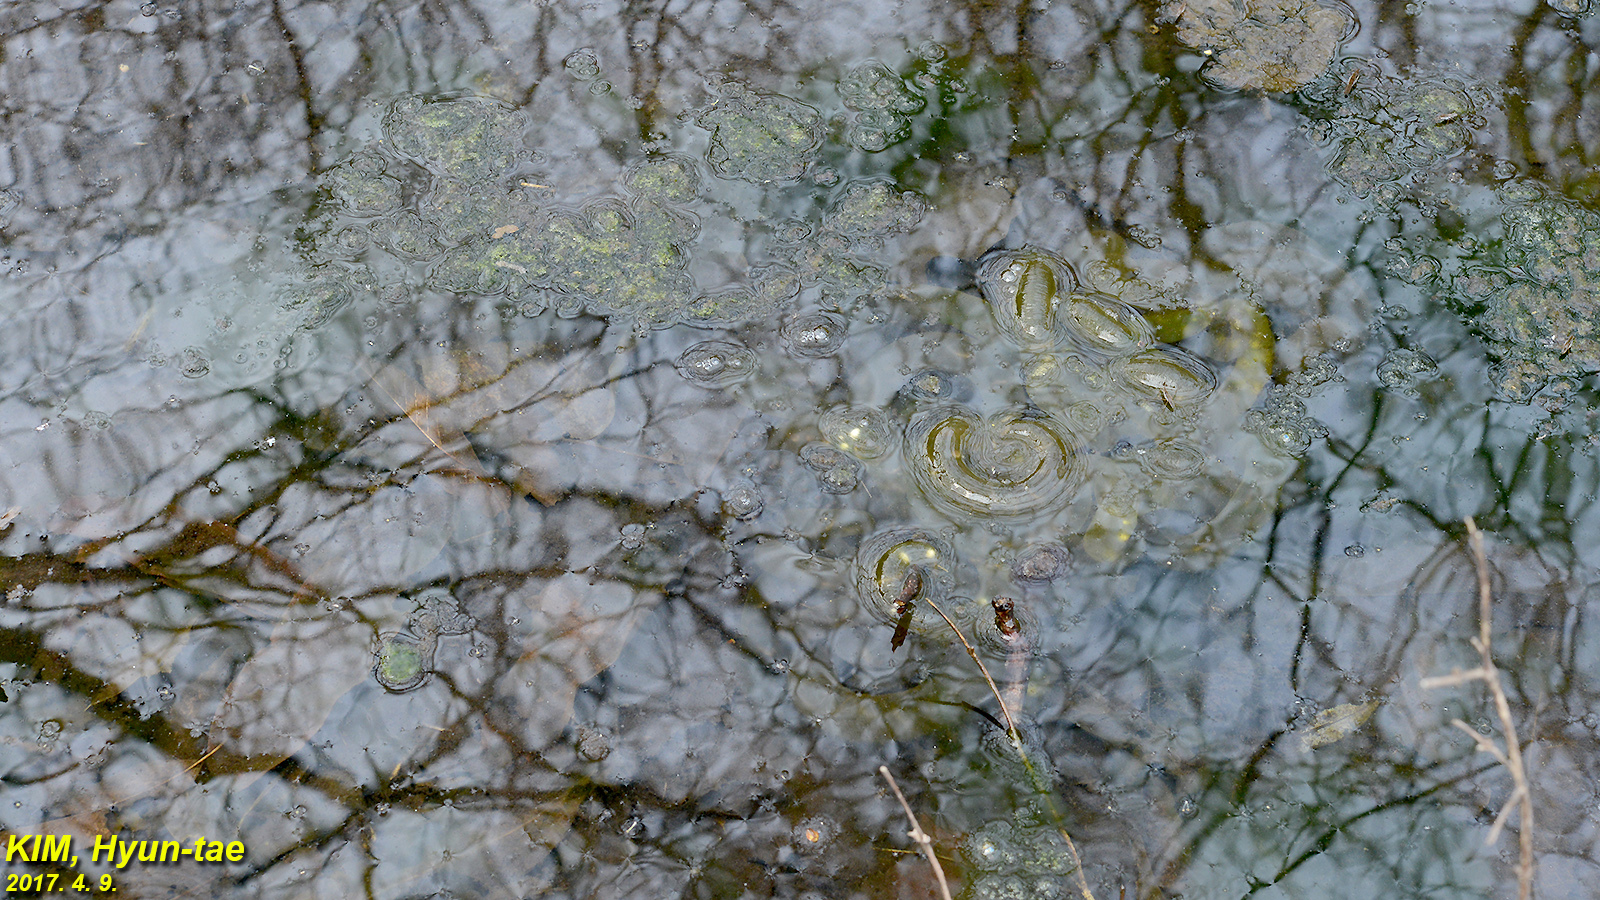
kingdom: Animalia
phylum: Chordata
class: Amphibia
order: Caudata
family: Hynobiidae
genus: Hynobius
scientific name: Hynobius leechii
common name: Gensan salamander
